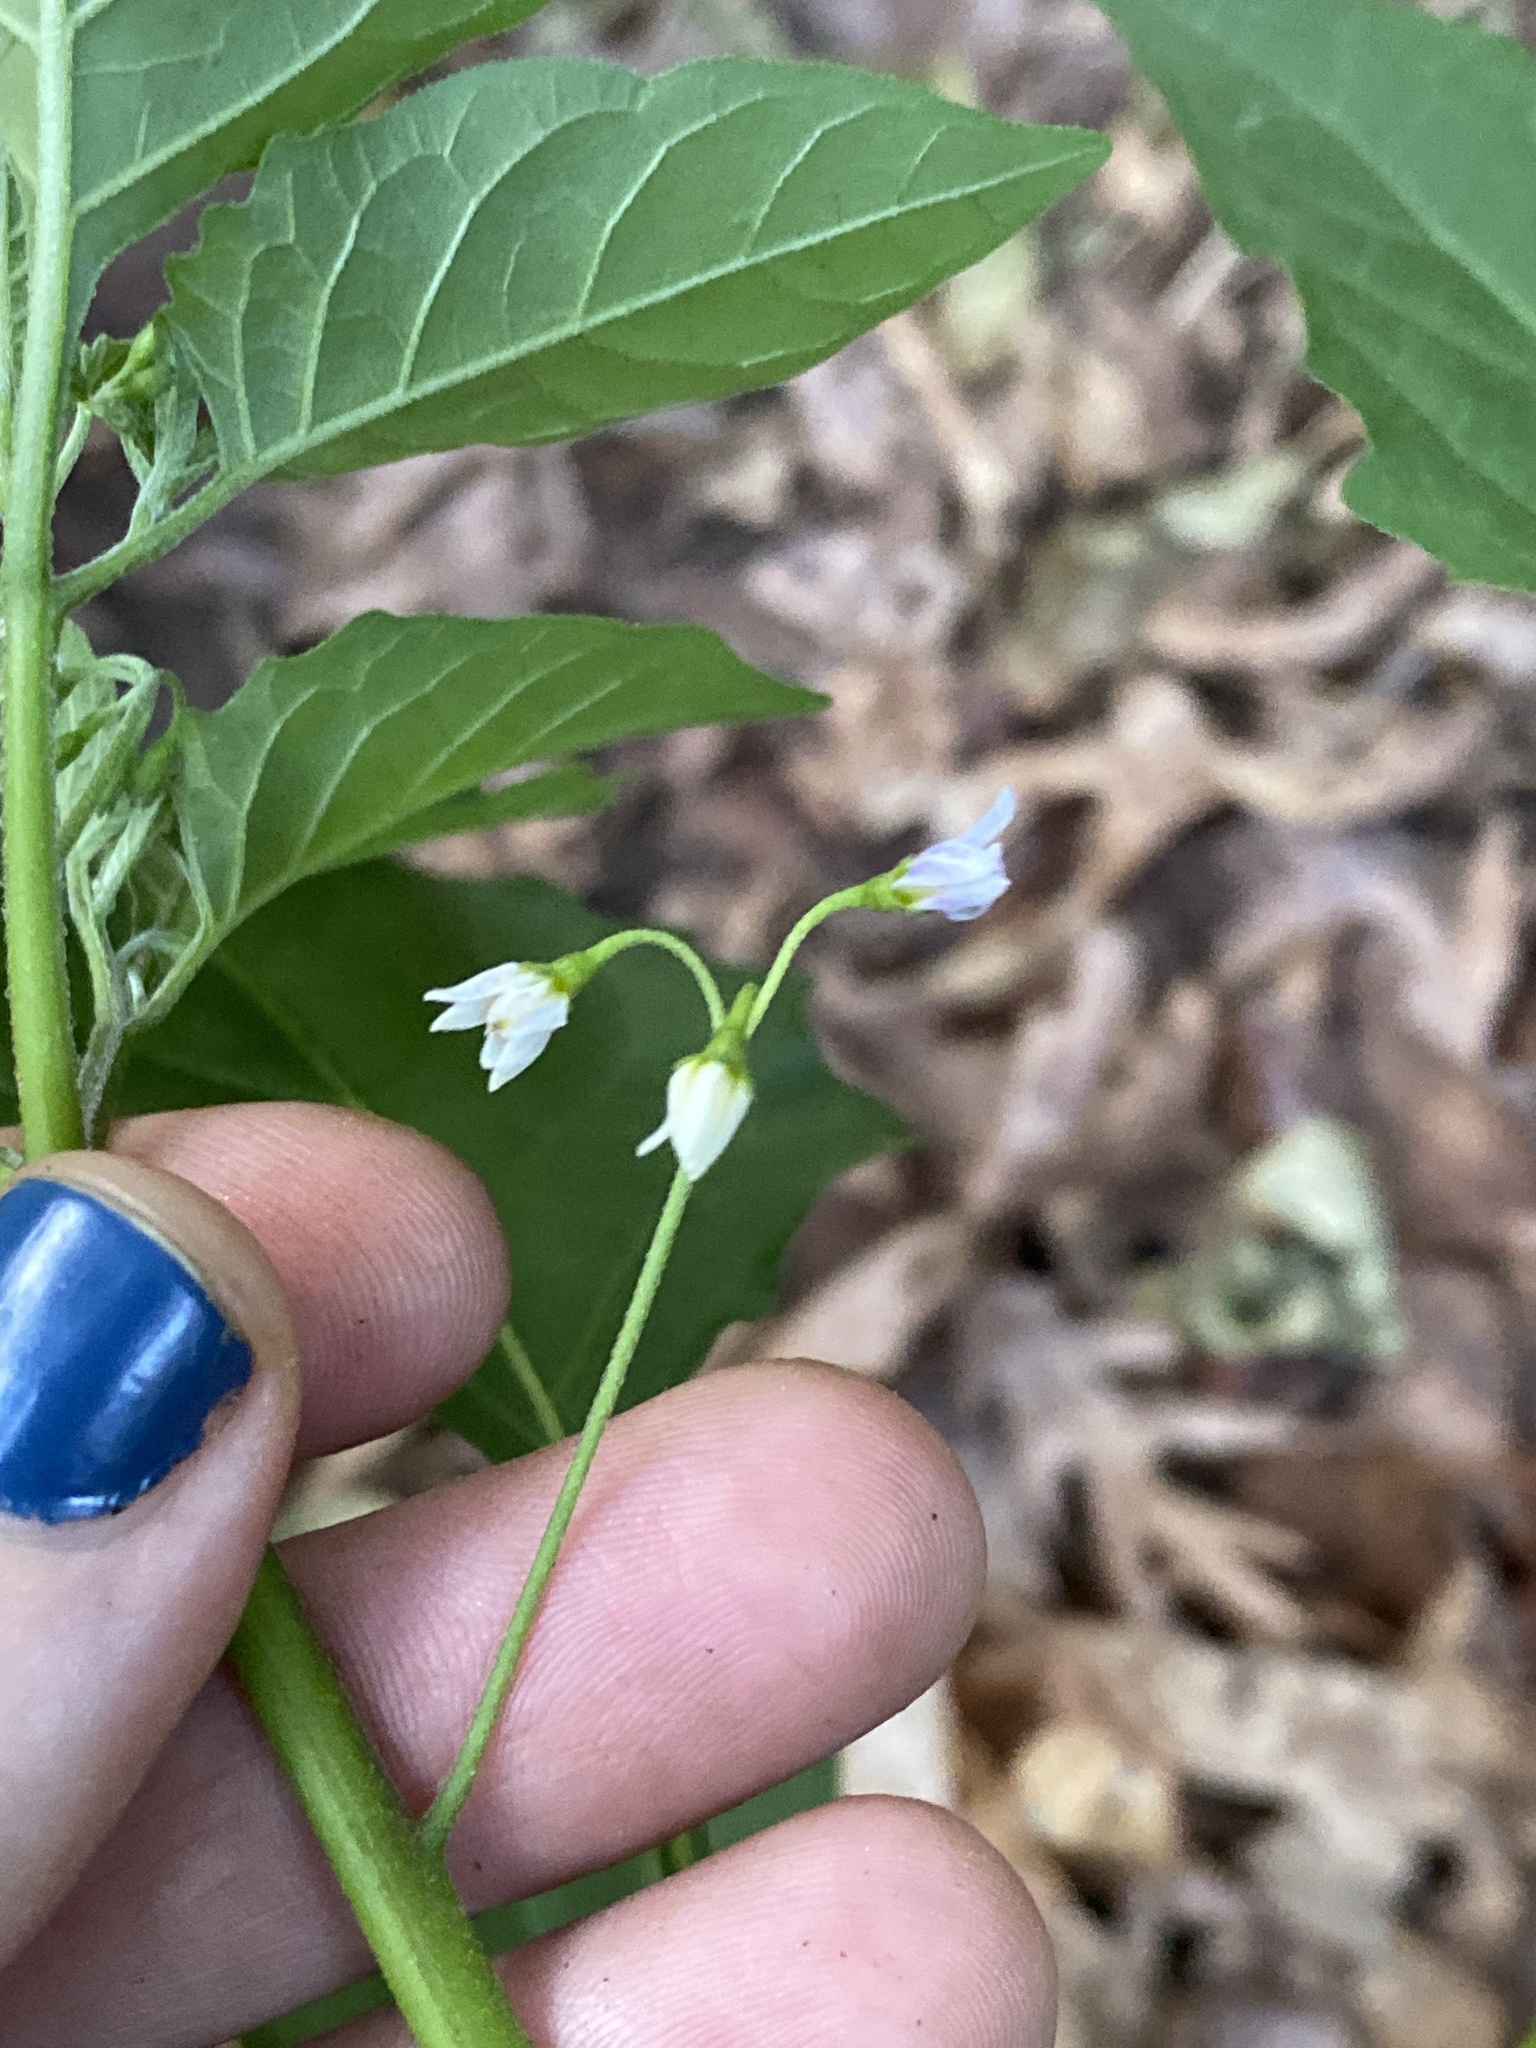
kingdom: Plantae
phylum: Tracheophyta
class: Magnoliopsida
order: Solanales
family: Solanaceae
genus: Solanum
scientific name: Solanum emulans
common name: Eastern black nightshade
